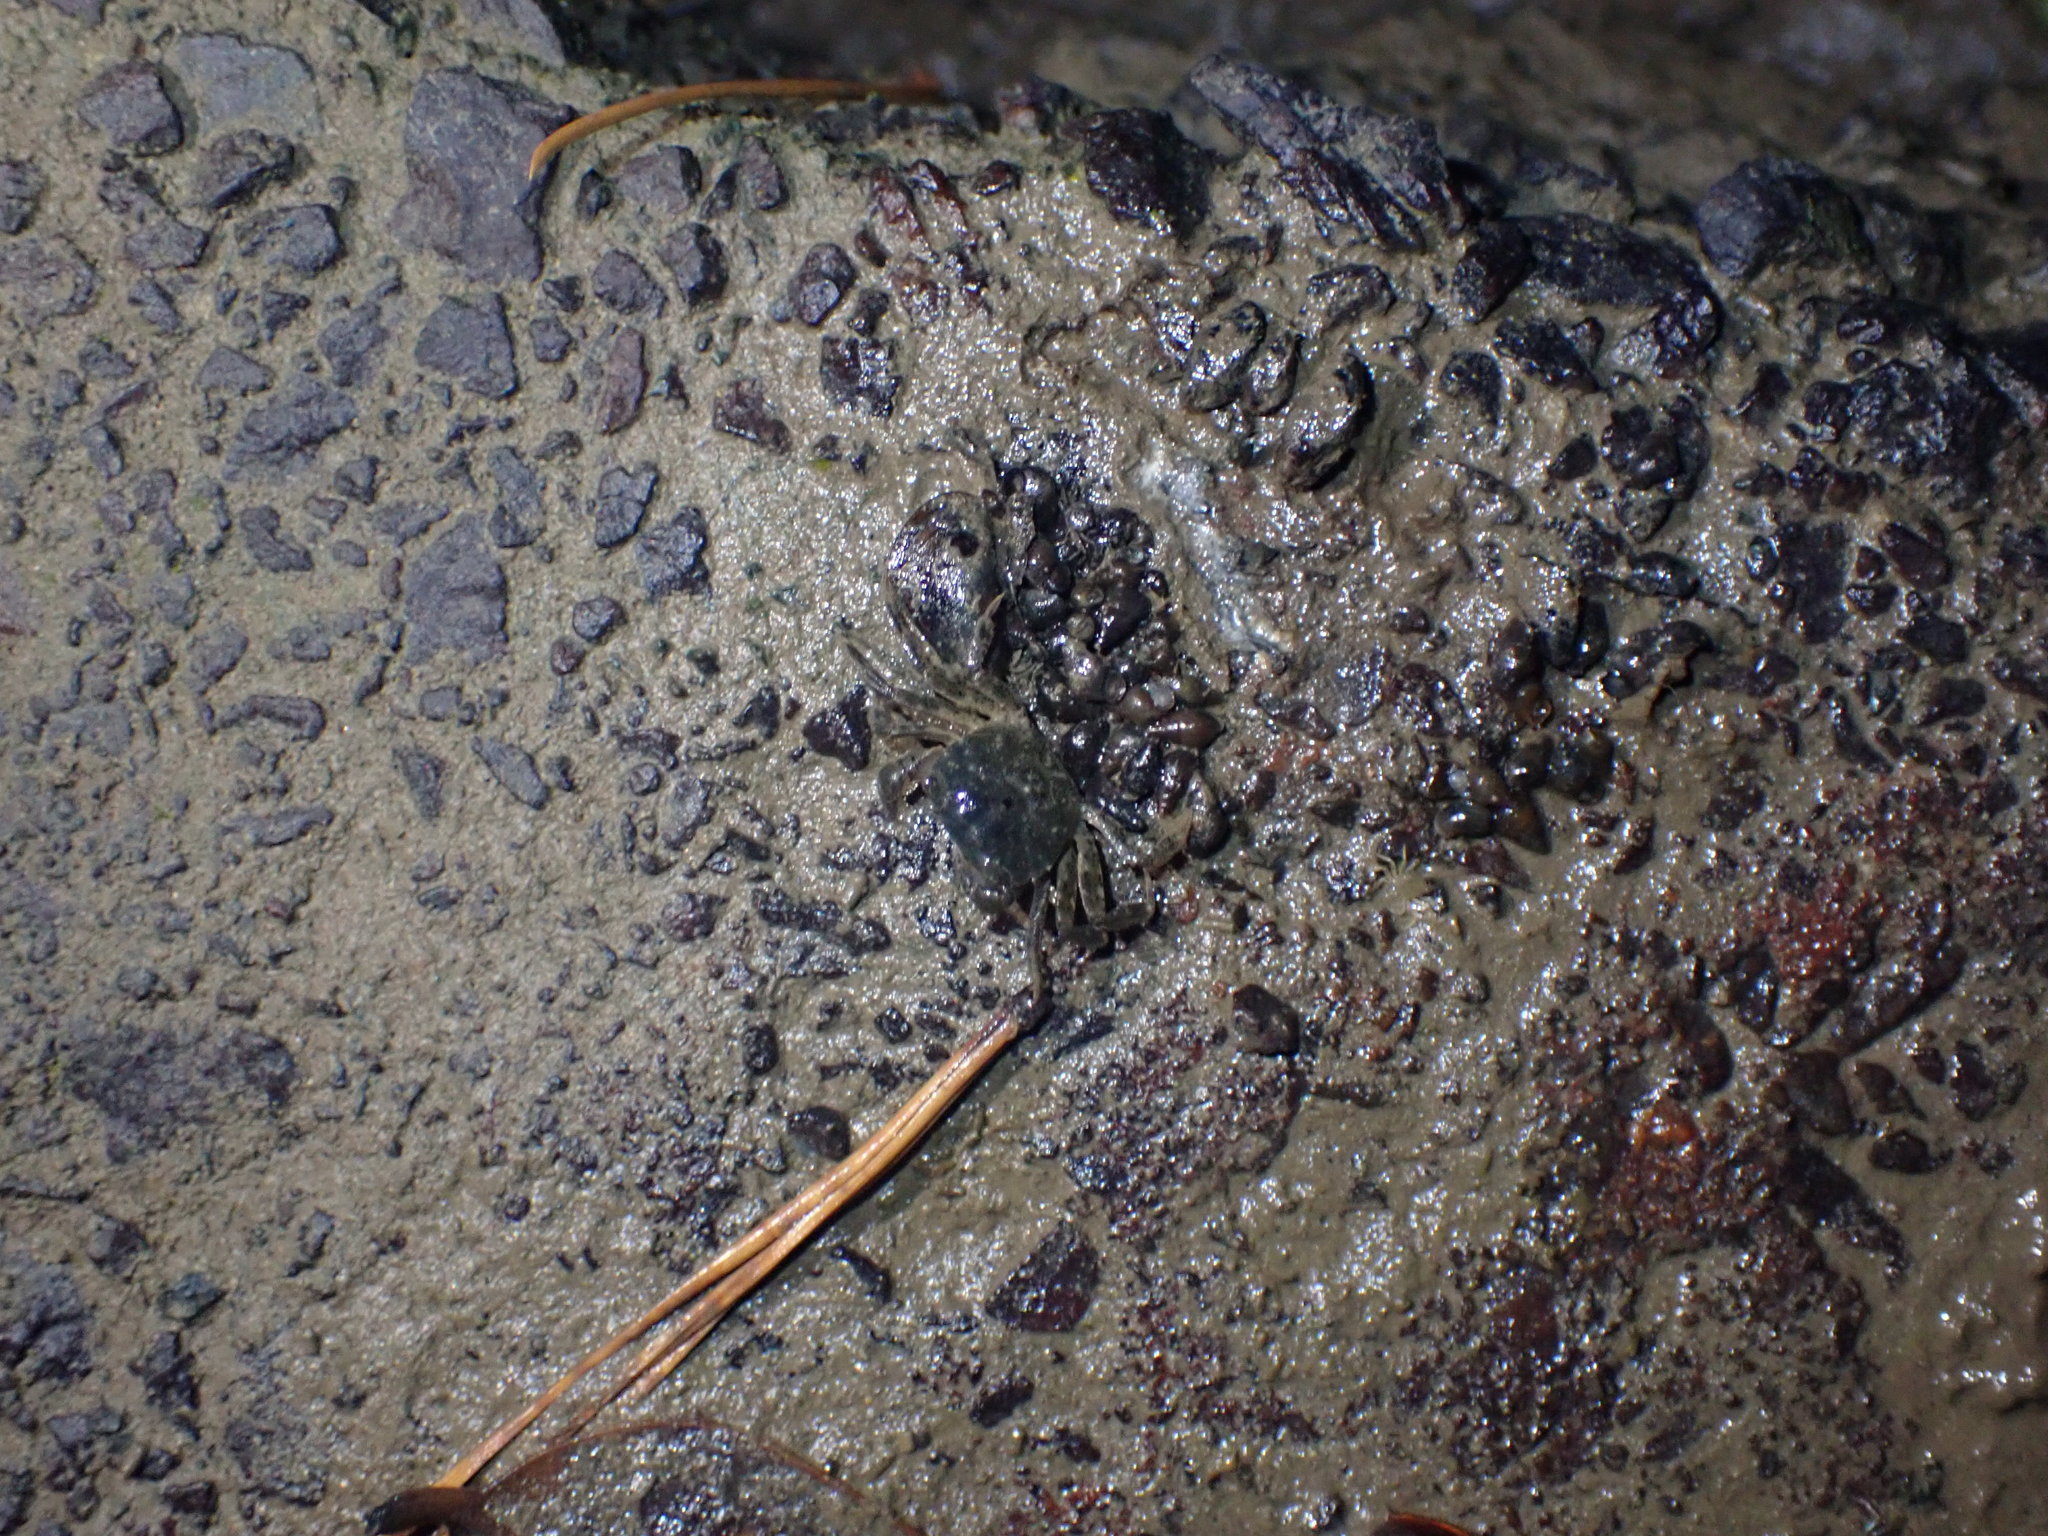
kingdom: Animalia
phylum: Arthropoda
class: Malacostraca
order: Decapoda
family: Varunidae
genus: Hemigrapsus
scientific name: Hemigrapsus crenulatus
